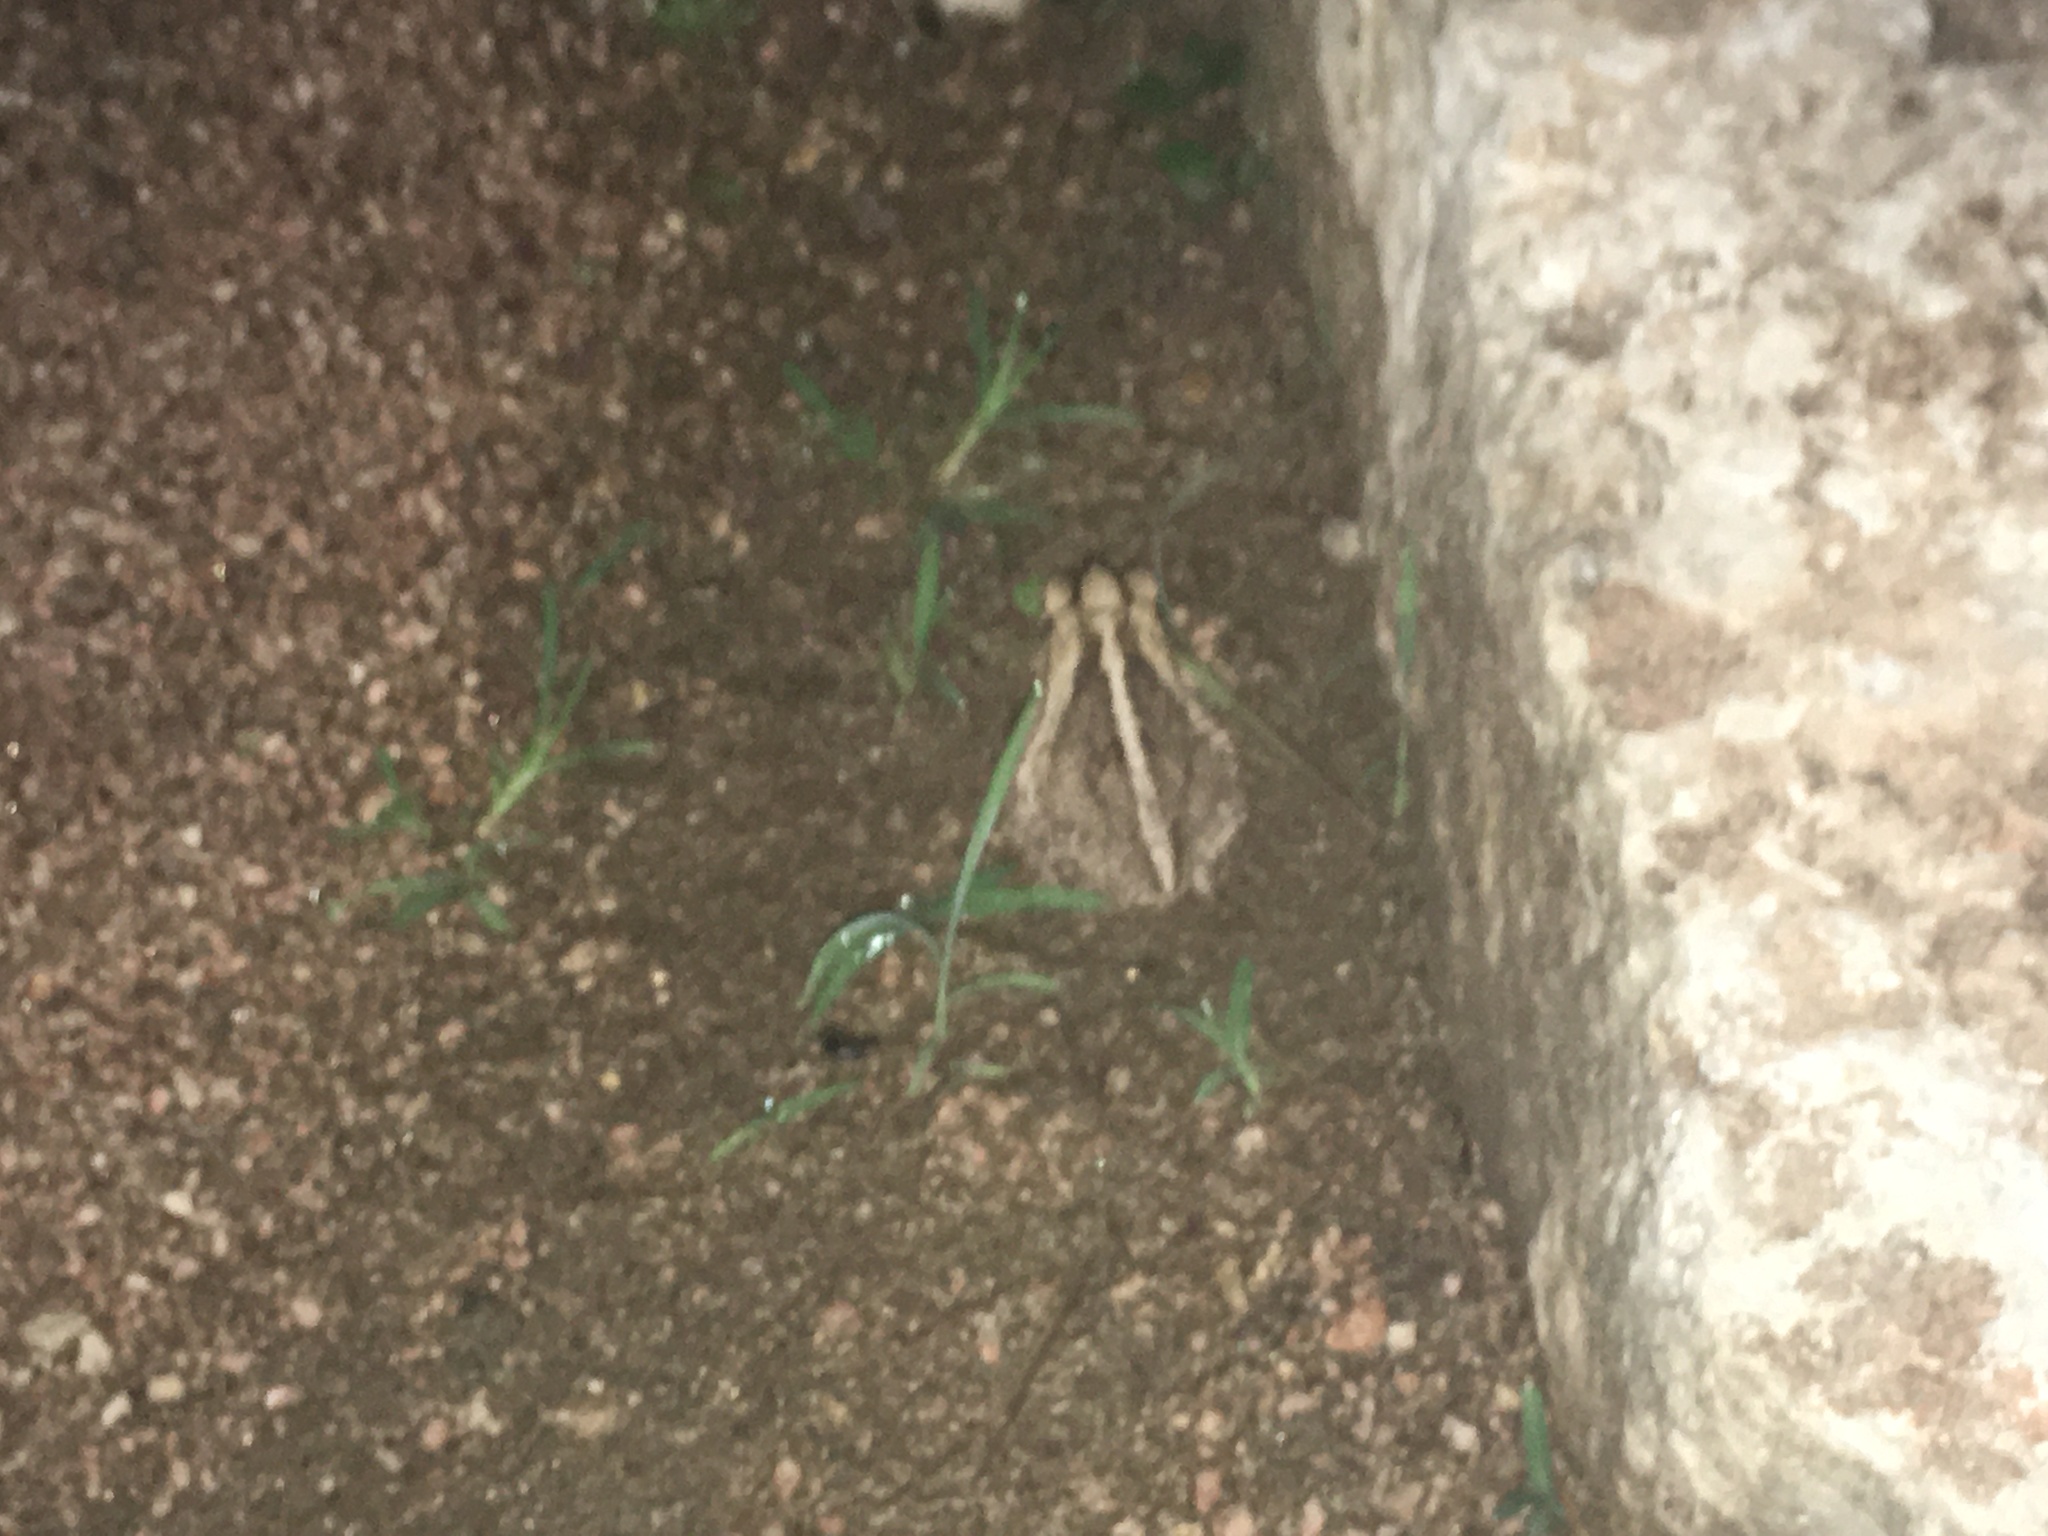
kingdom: Animalia
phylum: Chordata
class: Amphibia
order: Anura
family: Bufonidae
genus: Incilius
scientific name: Incilius nebulifer
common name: Gulf coast toad
